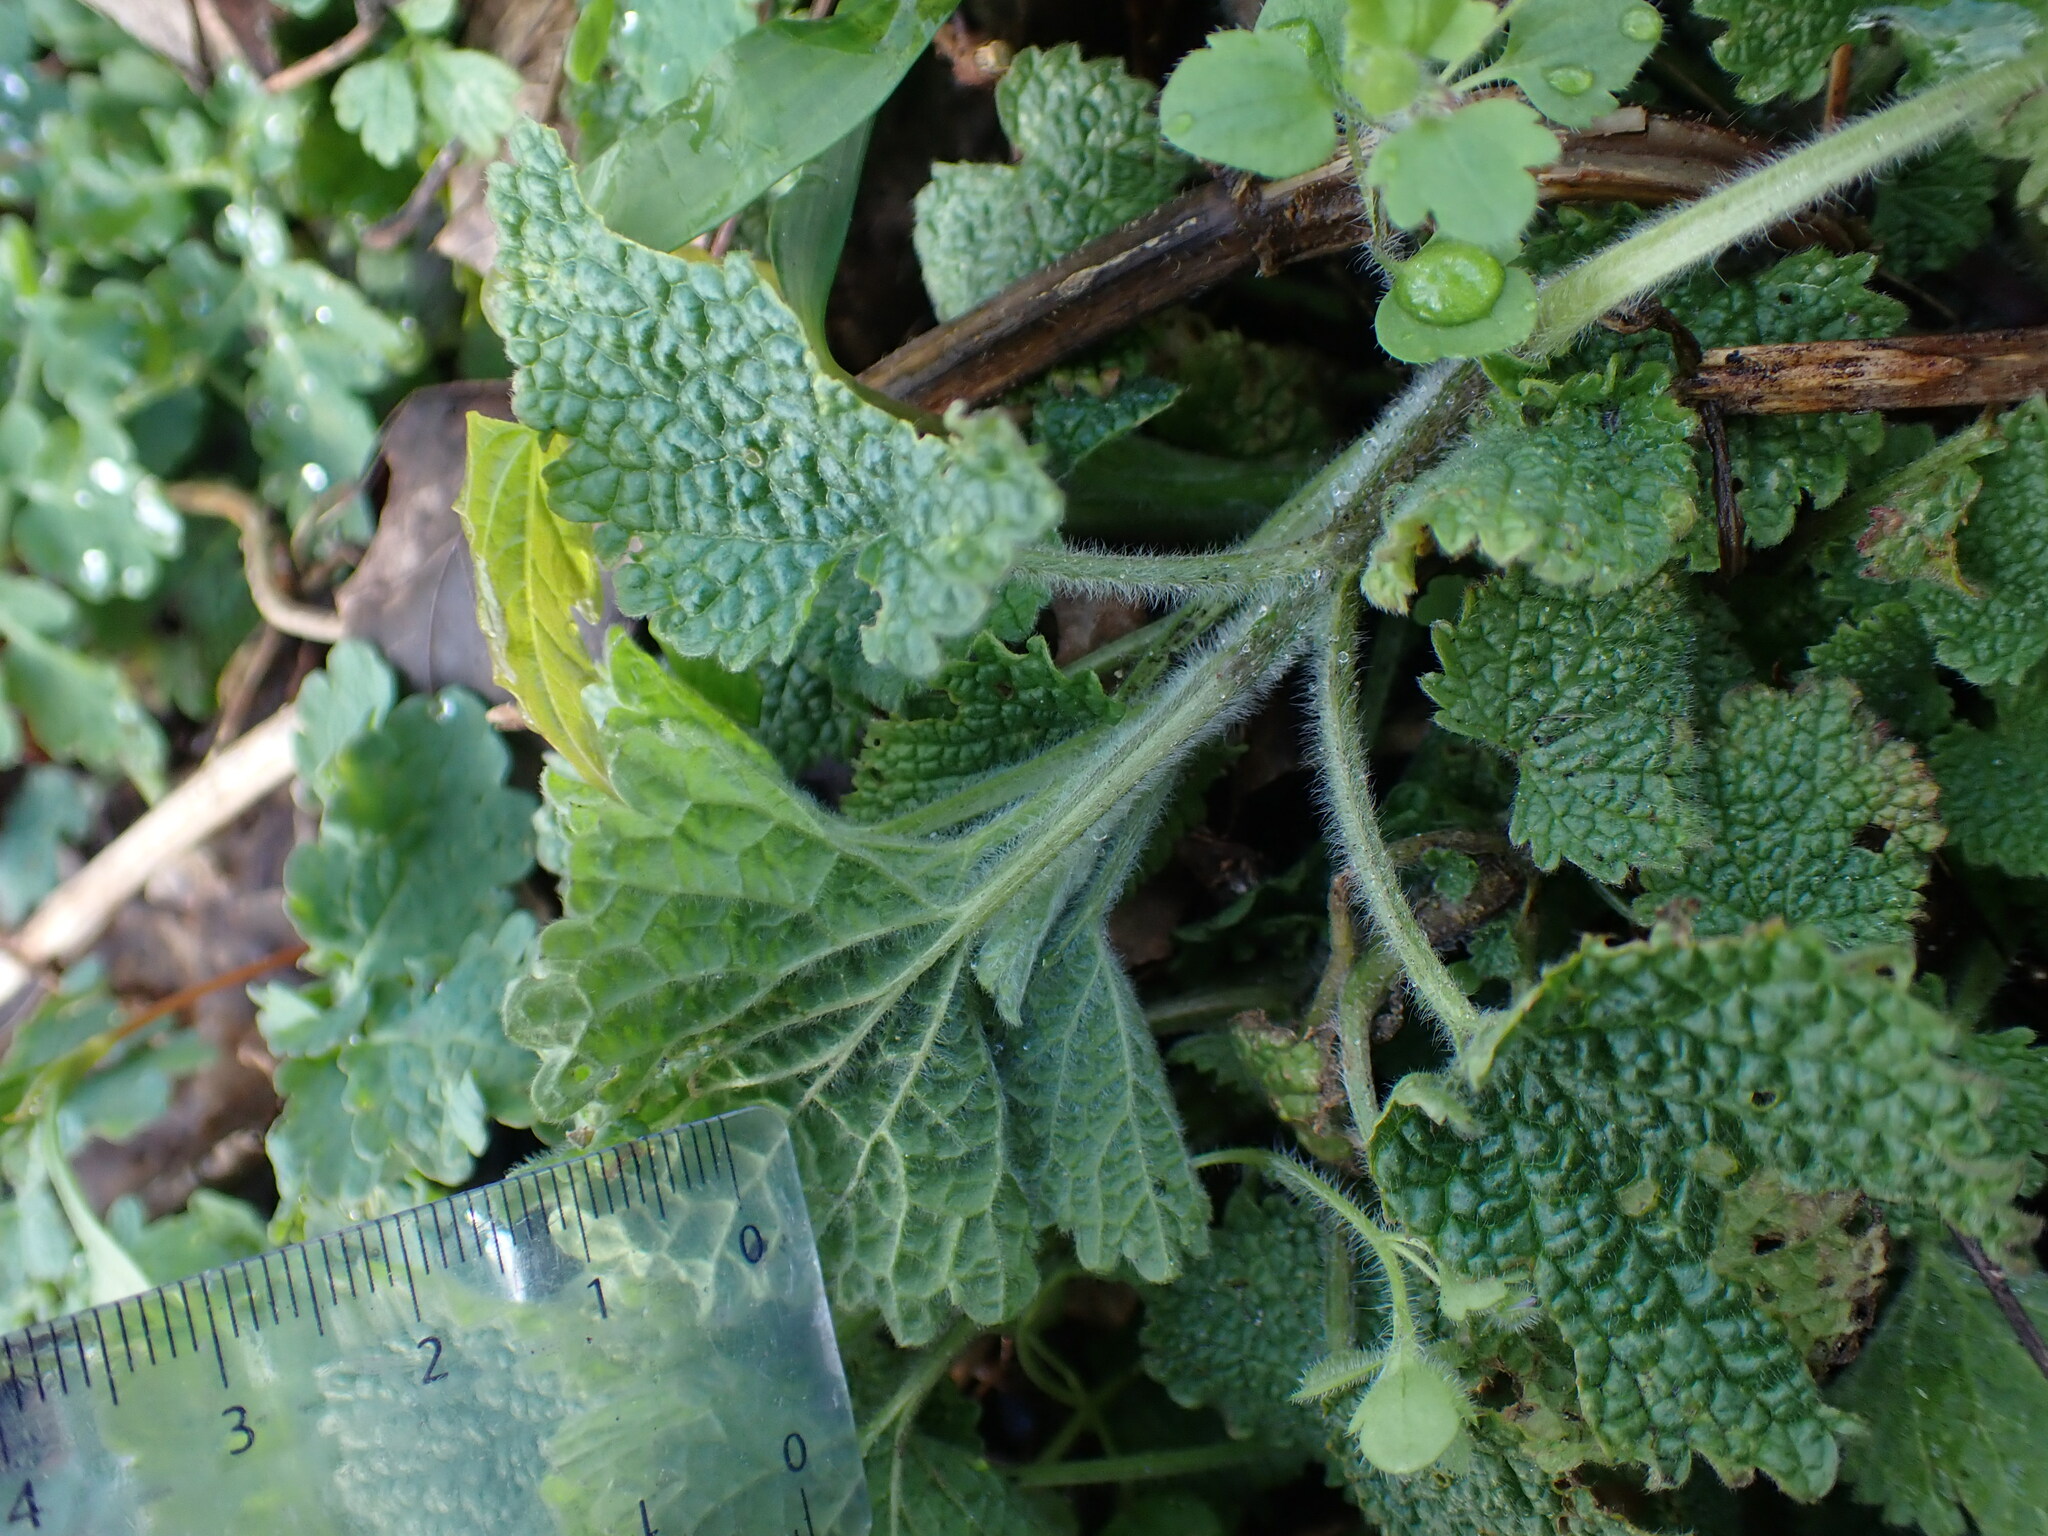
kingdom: Plantae
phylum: Tracheophyta
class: Magnoliopsida
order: Lamiales
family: Lamiaceae
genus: Ballota
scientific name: Ballota nigra
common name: Black horehound
